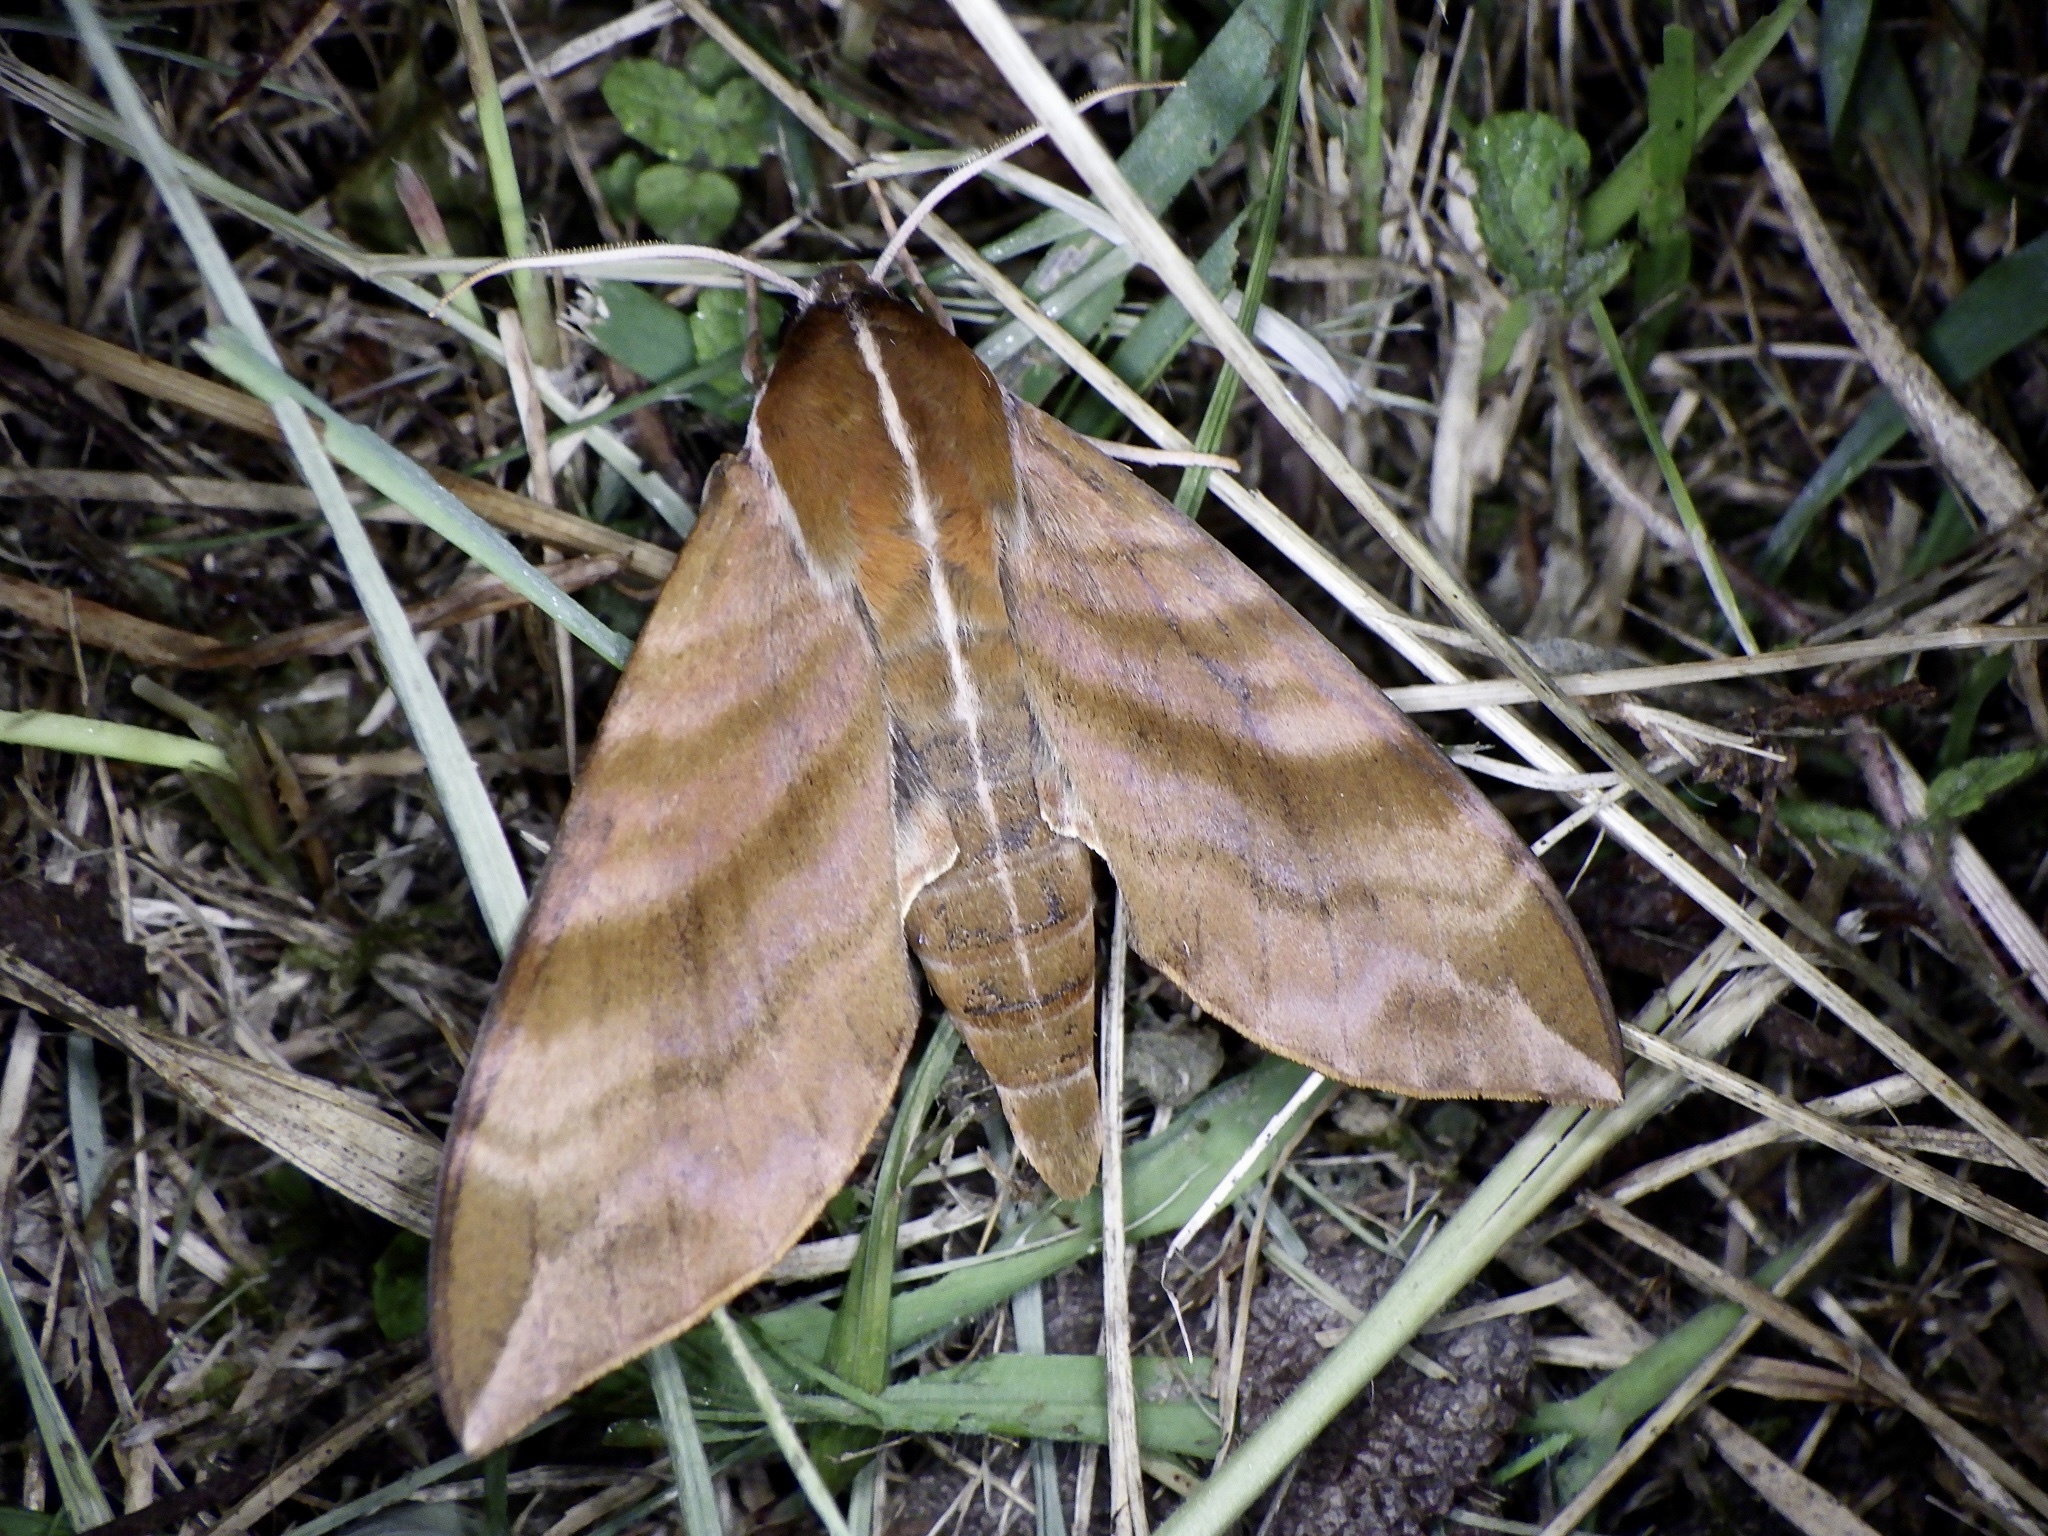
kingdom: Animalia
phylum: Arthropoda
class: Insecta
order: Lepidoptera
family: Sphingidae
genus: Ampelophaga
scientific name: Ampelophaga rubiginosa
